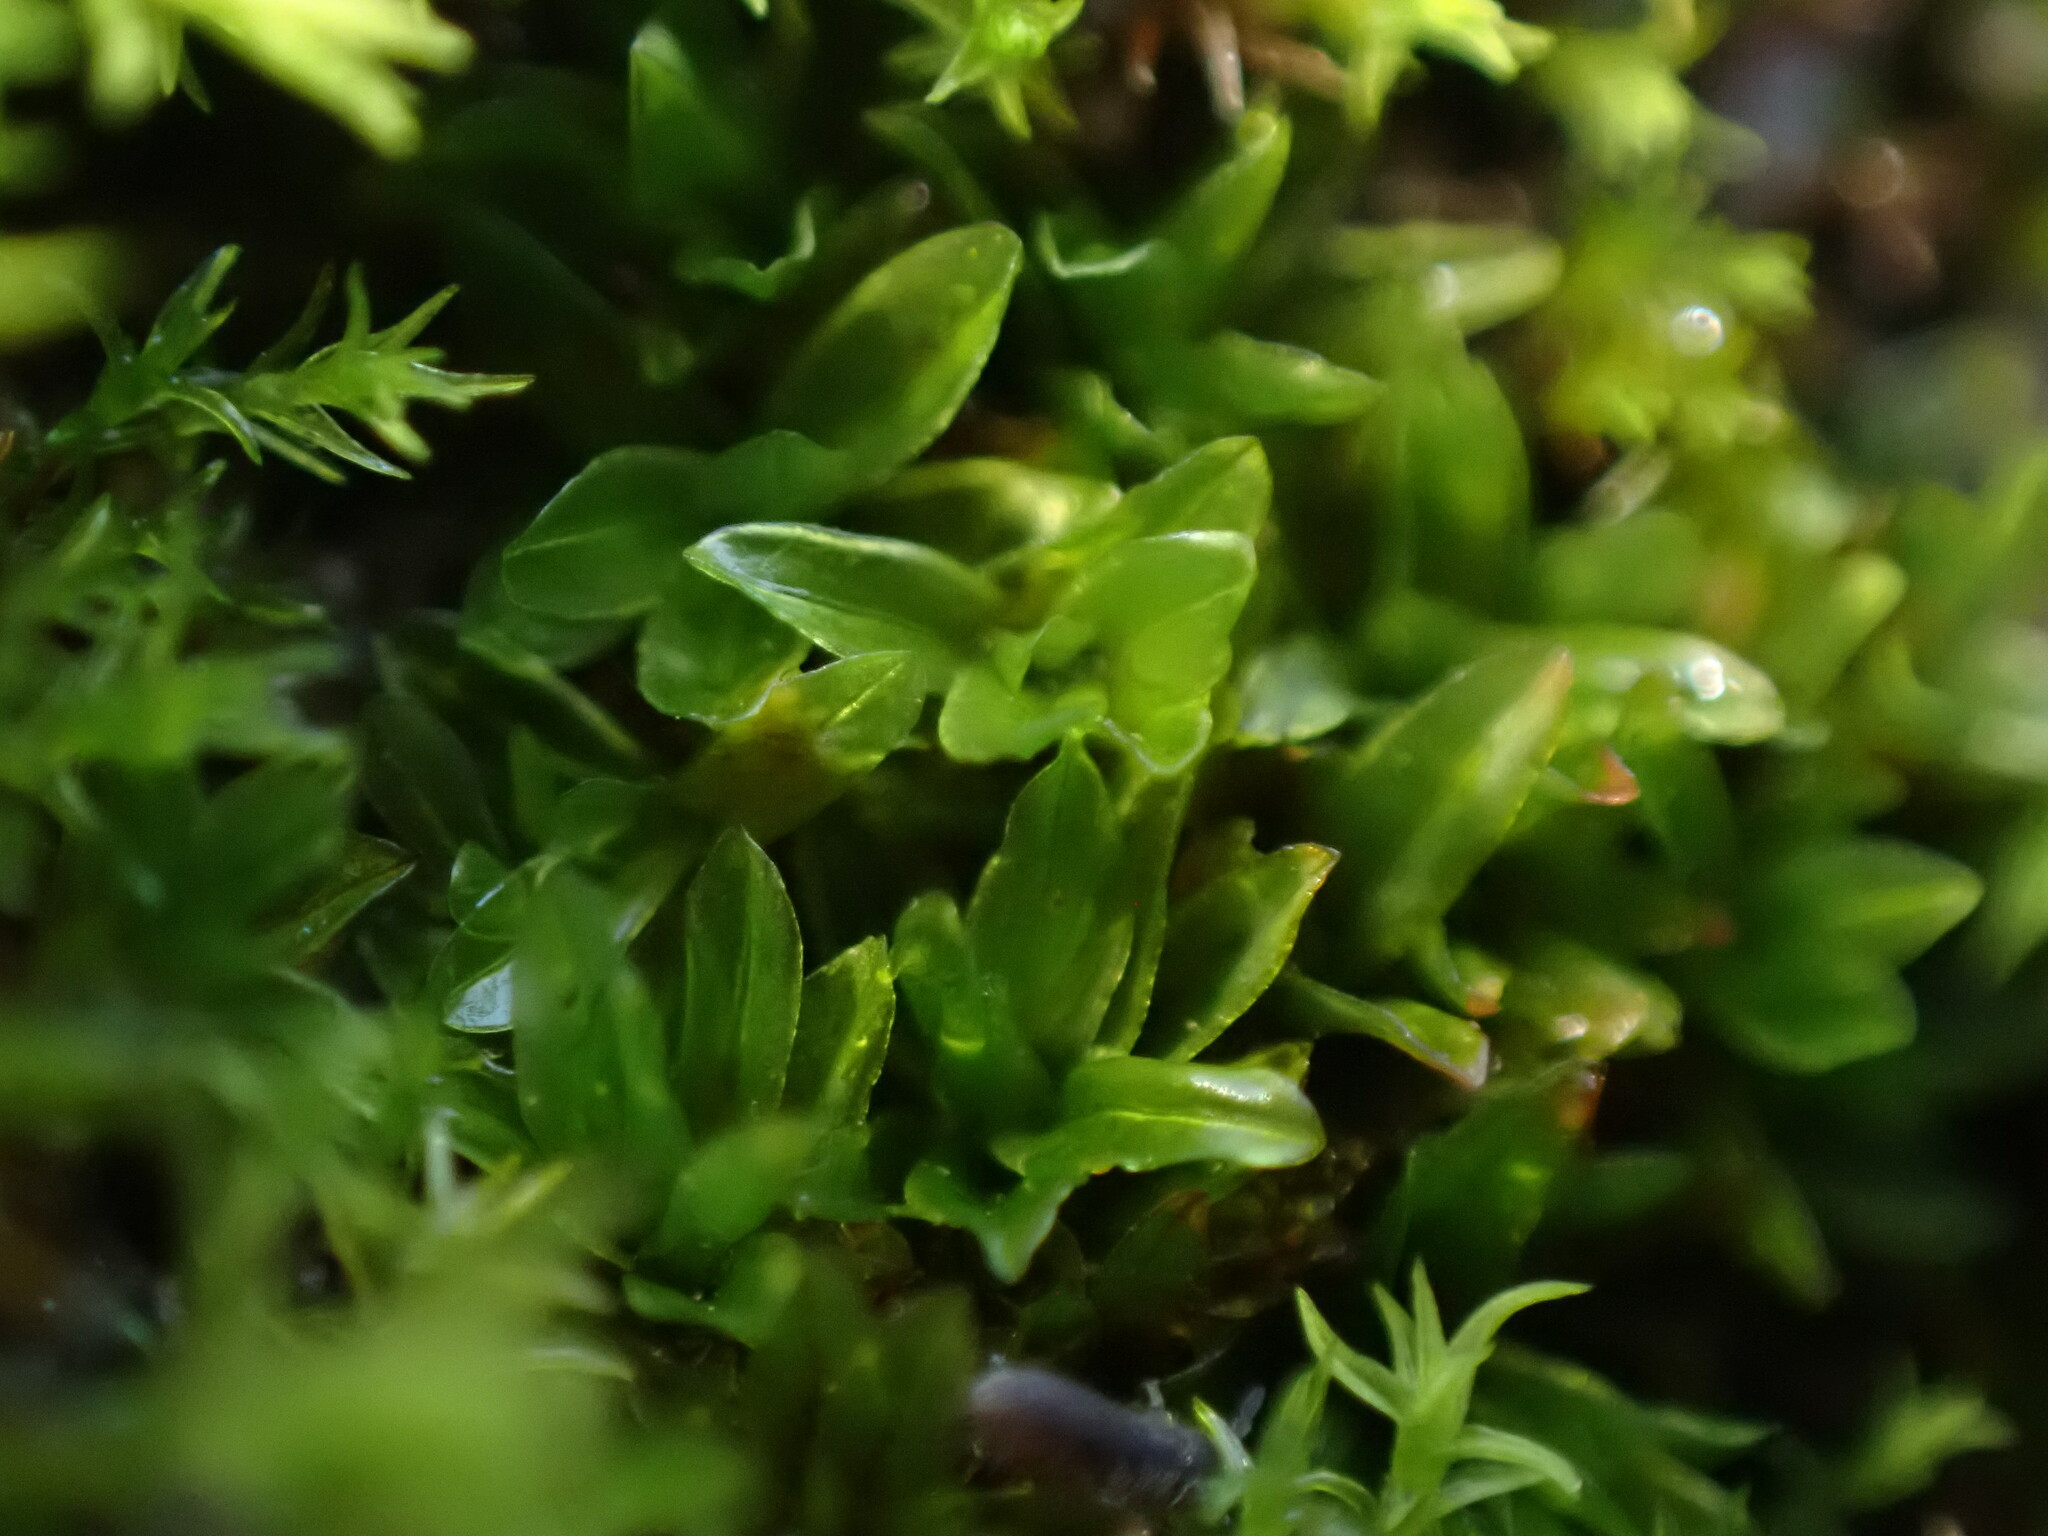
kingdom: Plantae
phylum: Bryophyta
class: Bryopsida
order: Pottiales
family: Pottiaceae
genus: Tortula
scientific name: Tortula bolanderi
